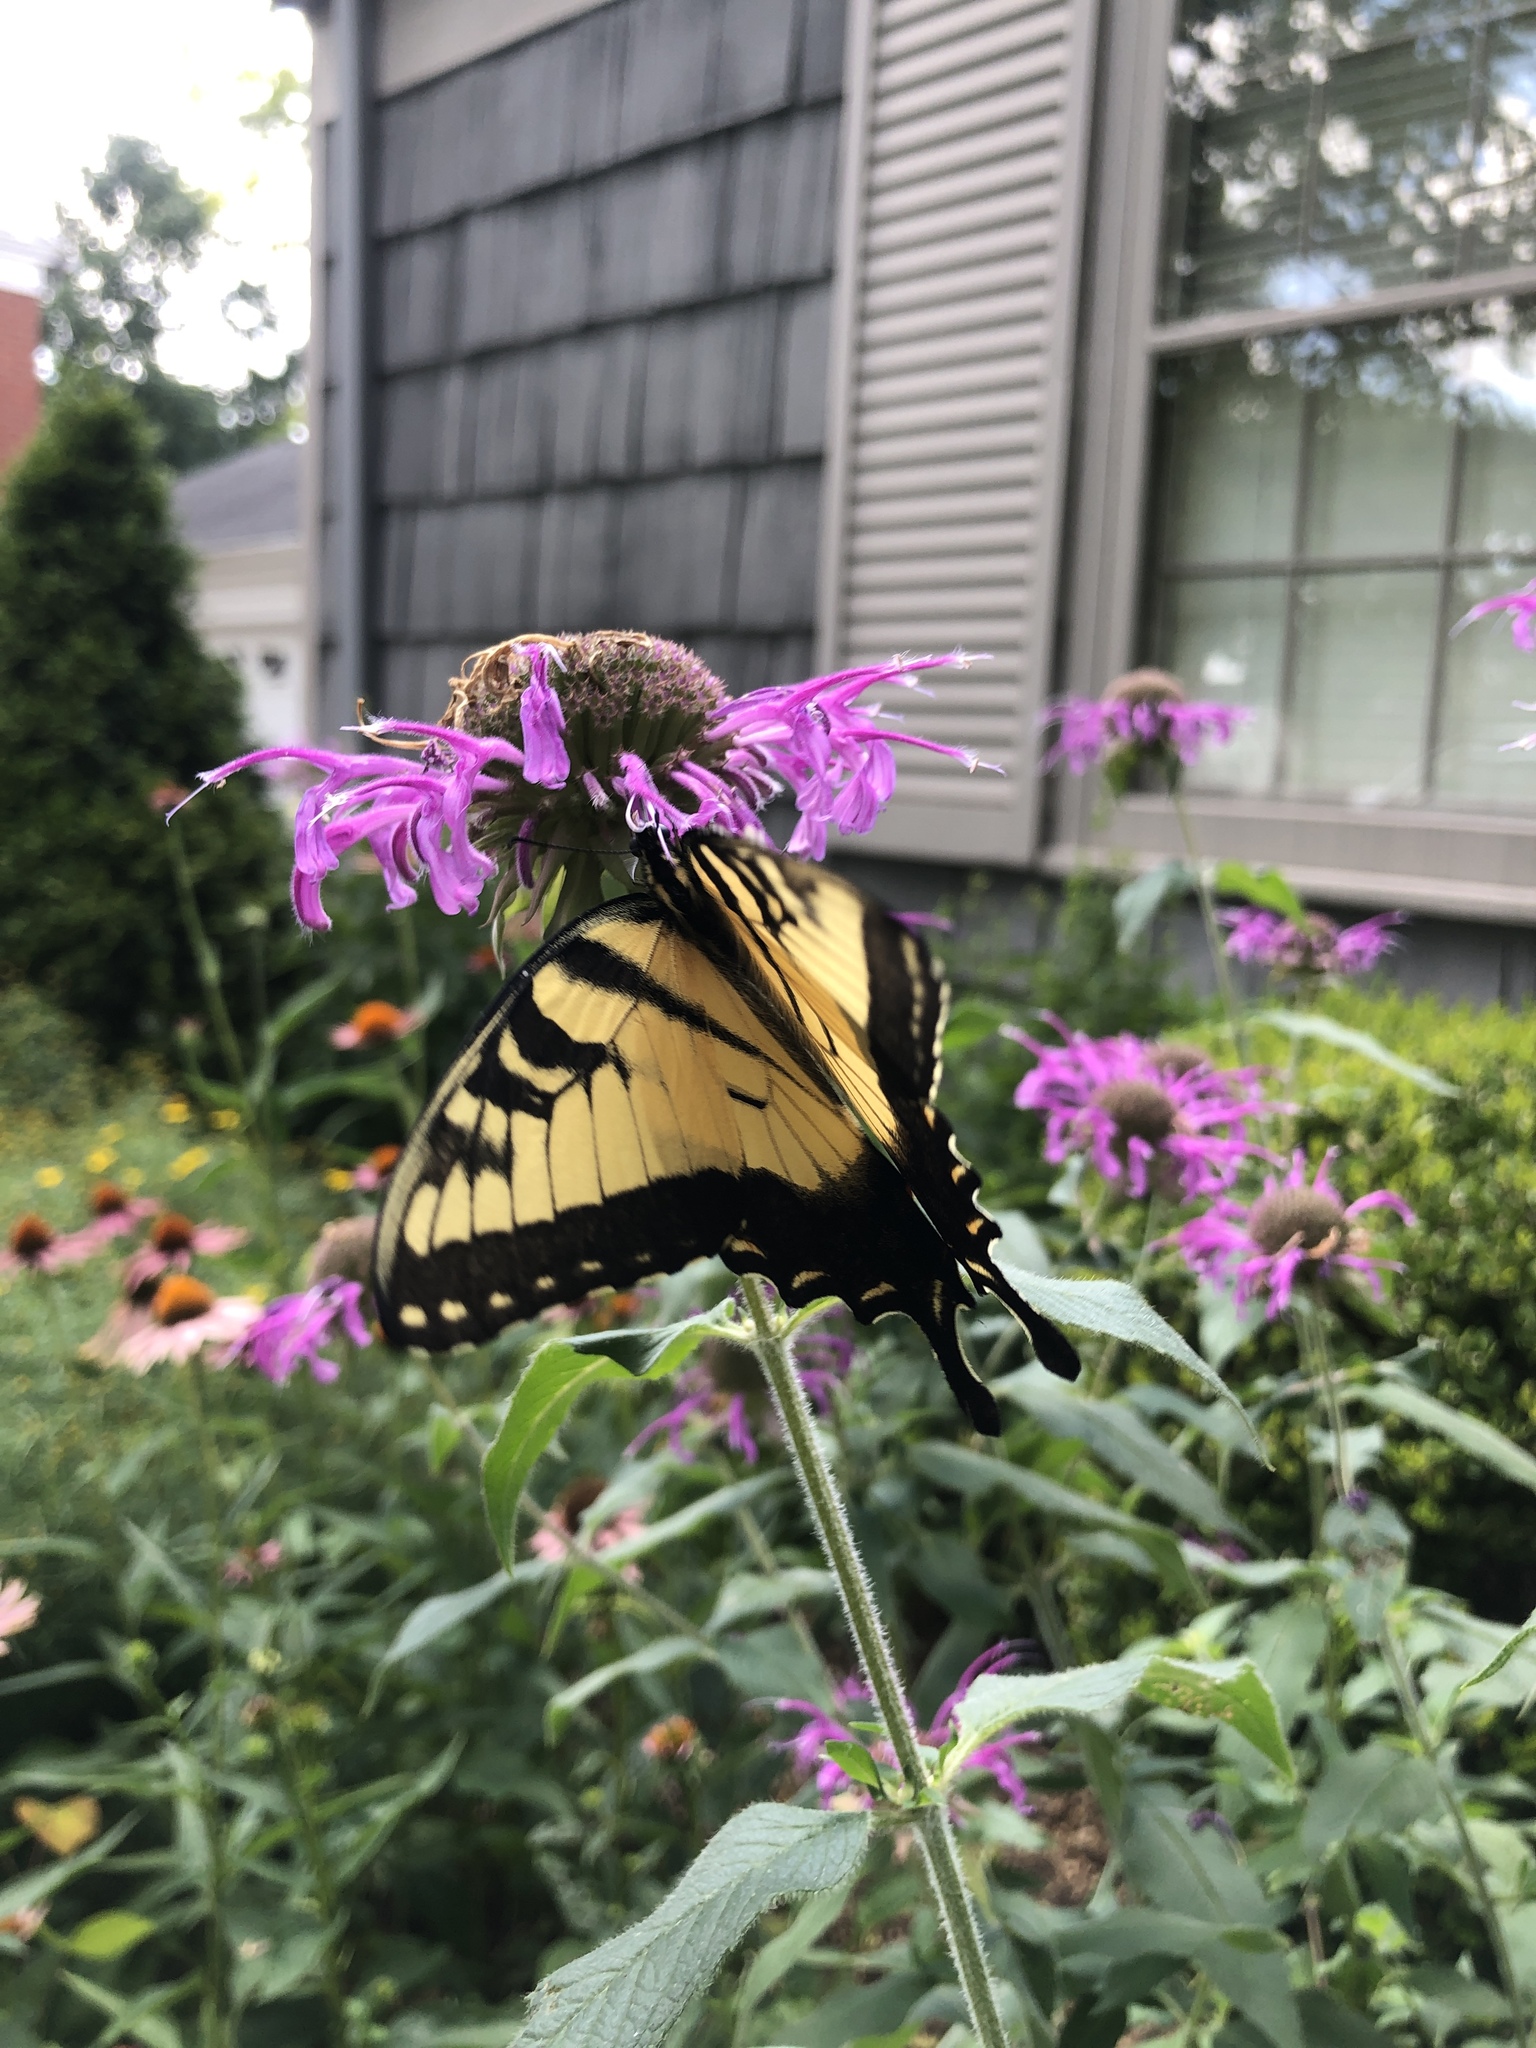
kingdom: Animalia
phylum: Arthropoda
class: Insecta
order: Lepidoptera
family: Papilionidae
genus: Papilio
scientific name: Papilio glaucus
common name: Tiger swallowtail
